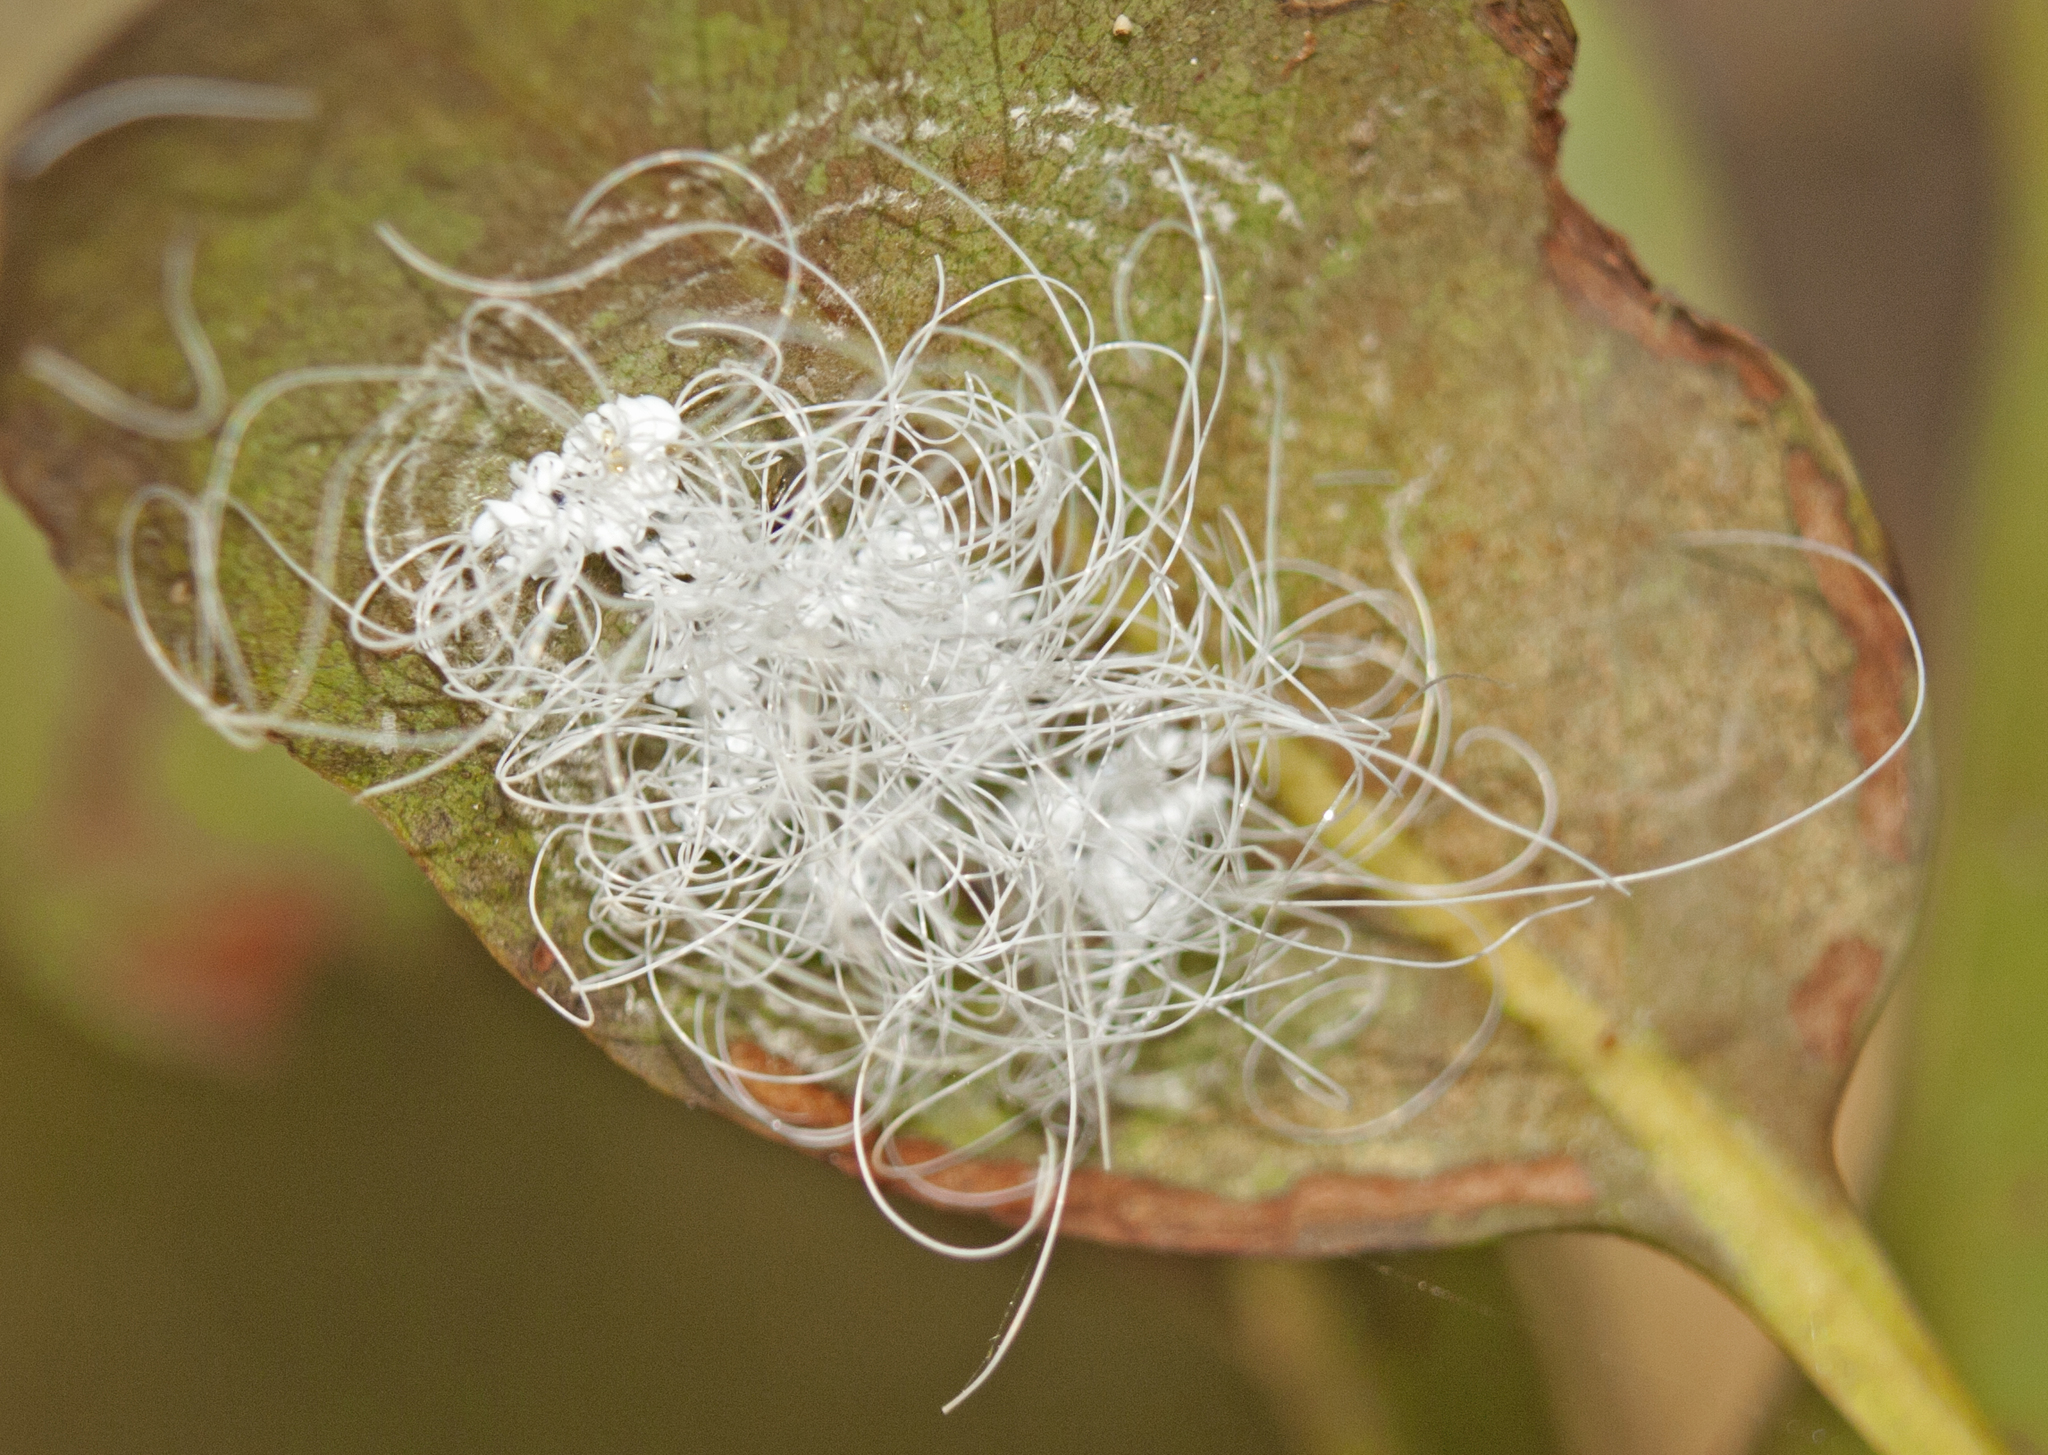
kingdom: Animalia
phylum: Arthropoda
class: Insecta
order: Hemiptera
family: Aleyrodidae
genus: Aleuroctarthrus
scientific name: Aleuroctarthrus
